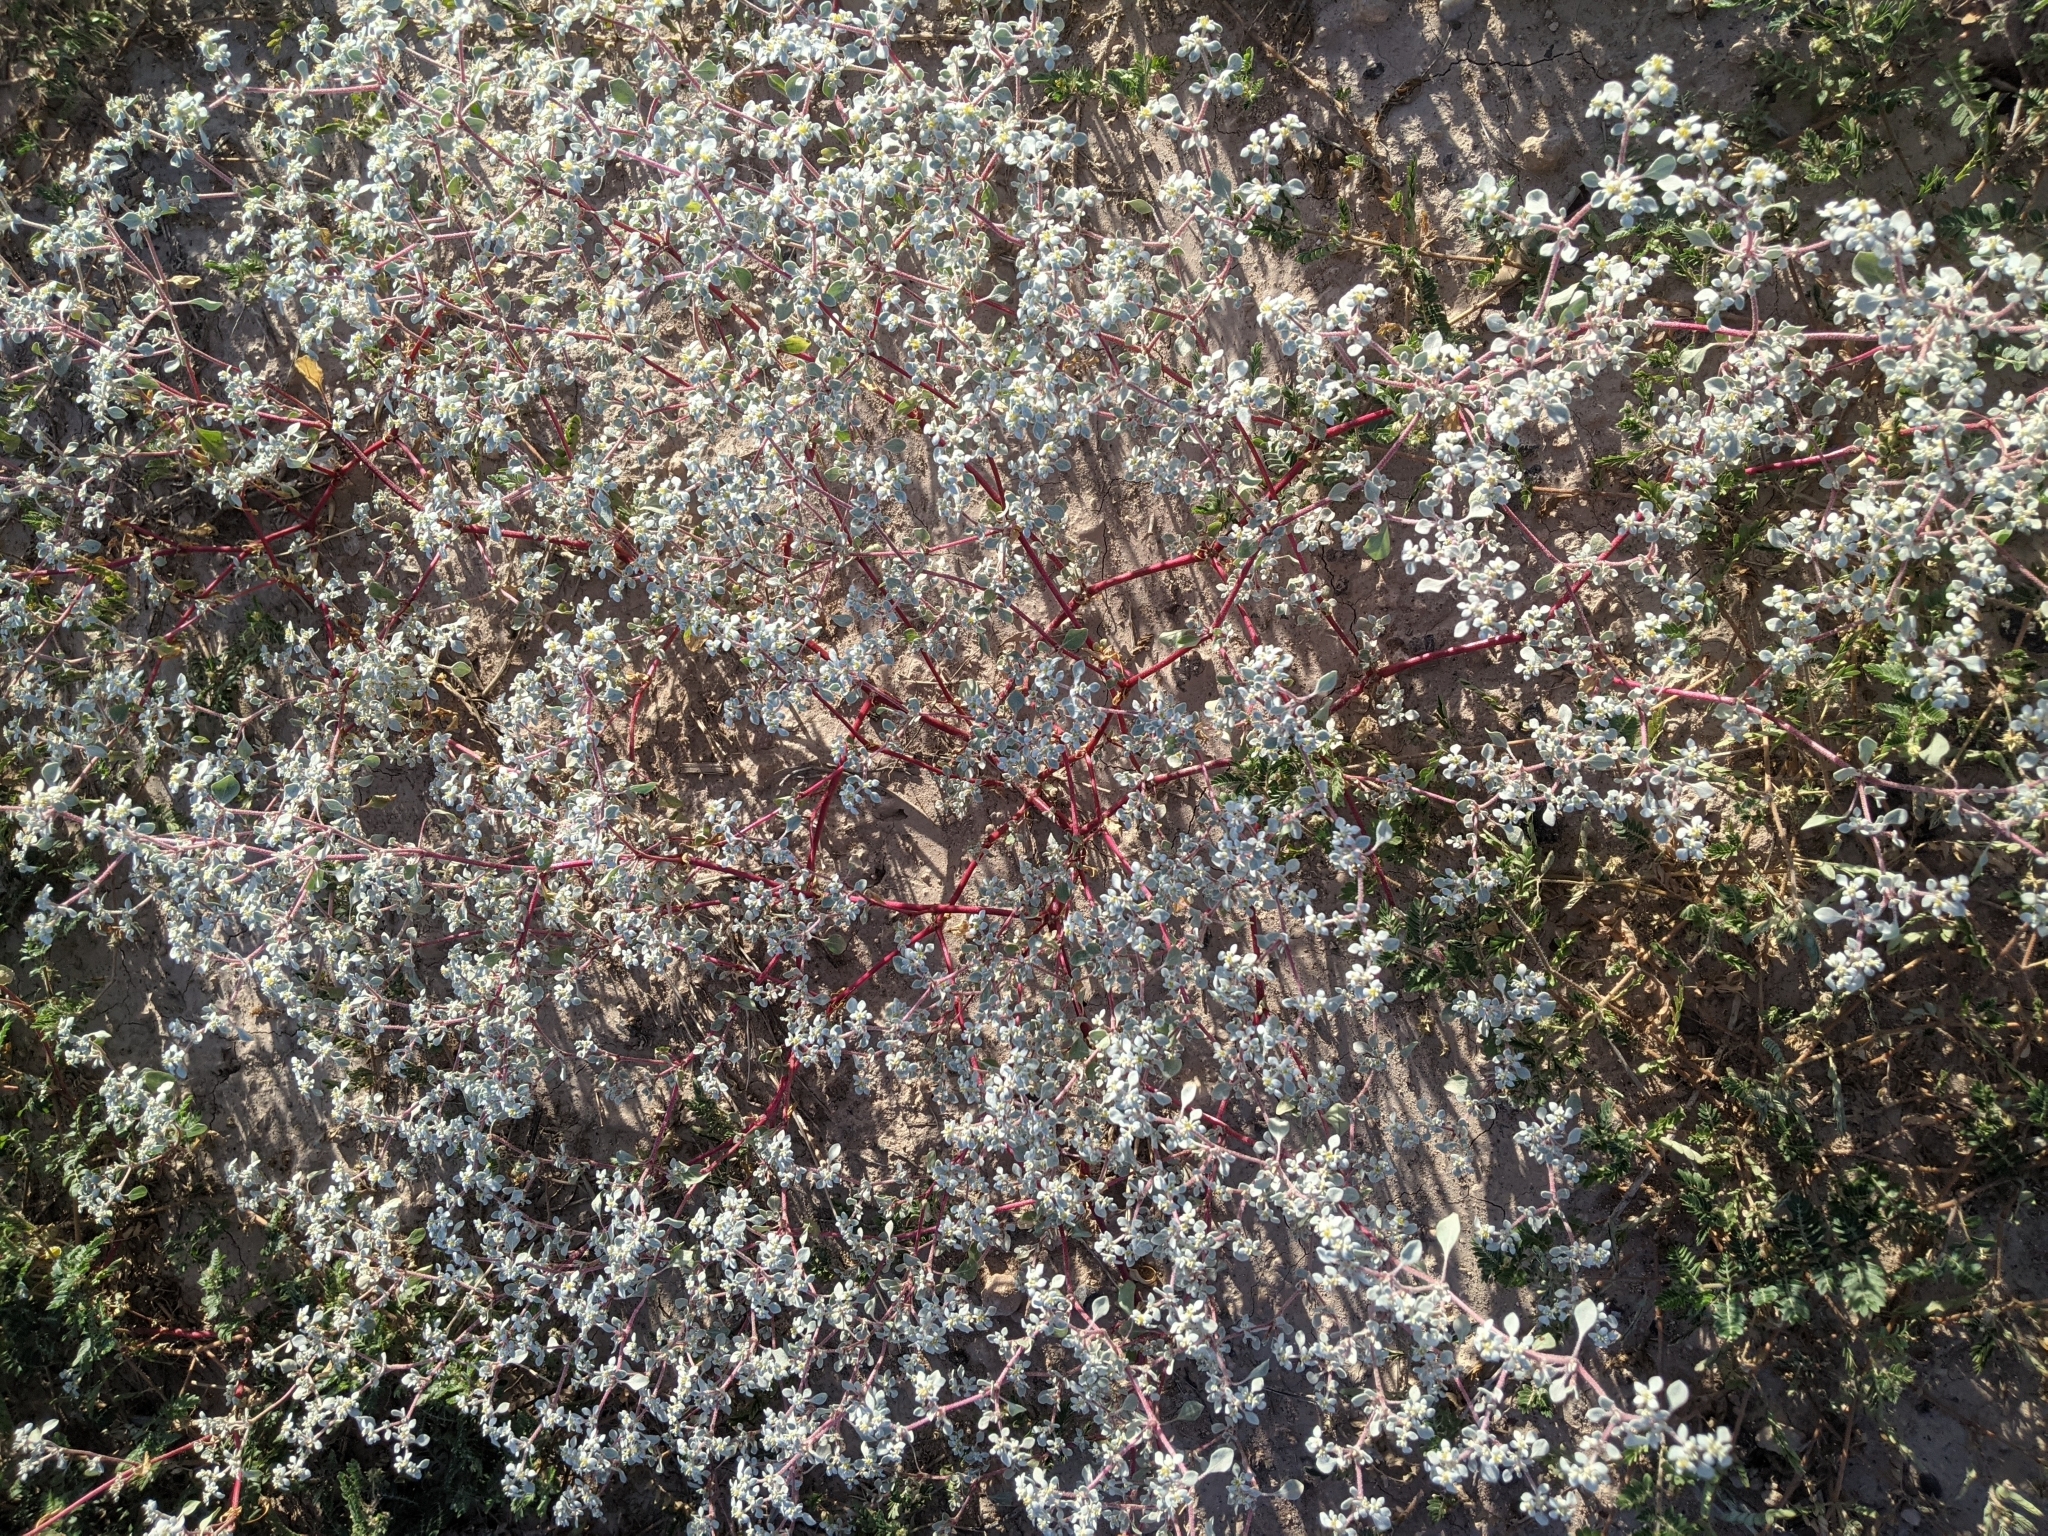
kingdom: Plantae
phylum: Tracheophyta
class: Magnoliopsida
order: Caryophyllales
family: Amaranthaceae
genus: Tidestromia
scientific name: Tidestromia lanuginosa
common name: Woolly tidestromia
